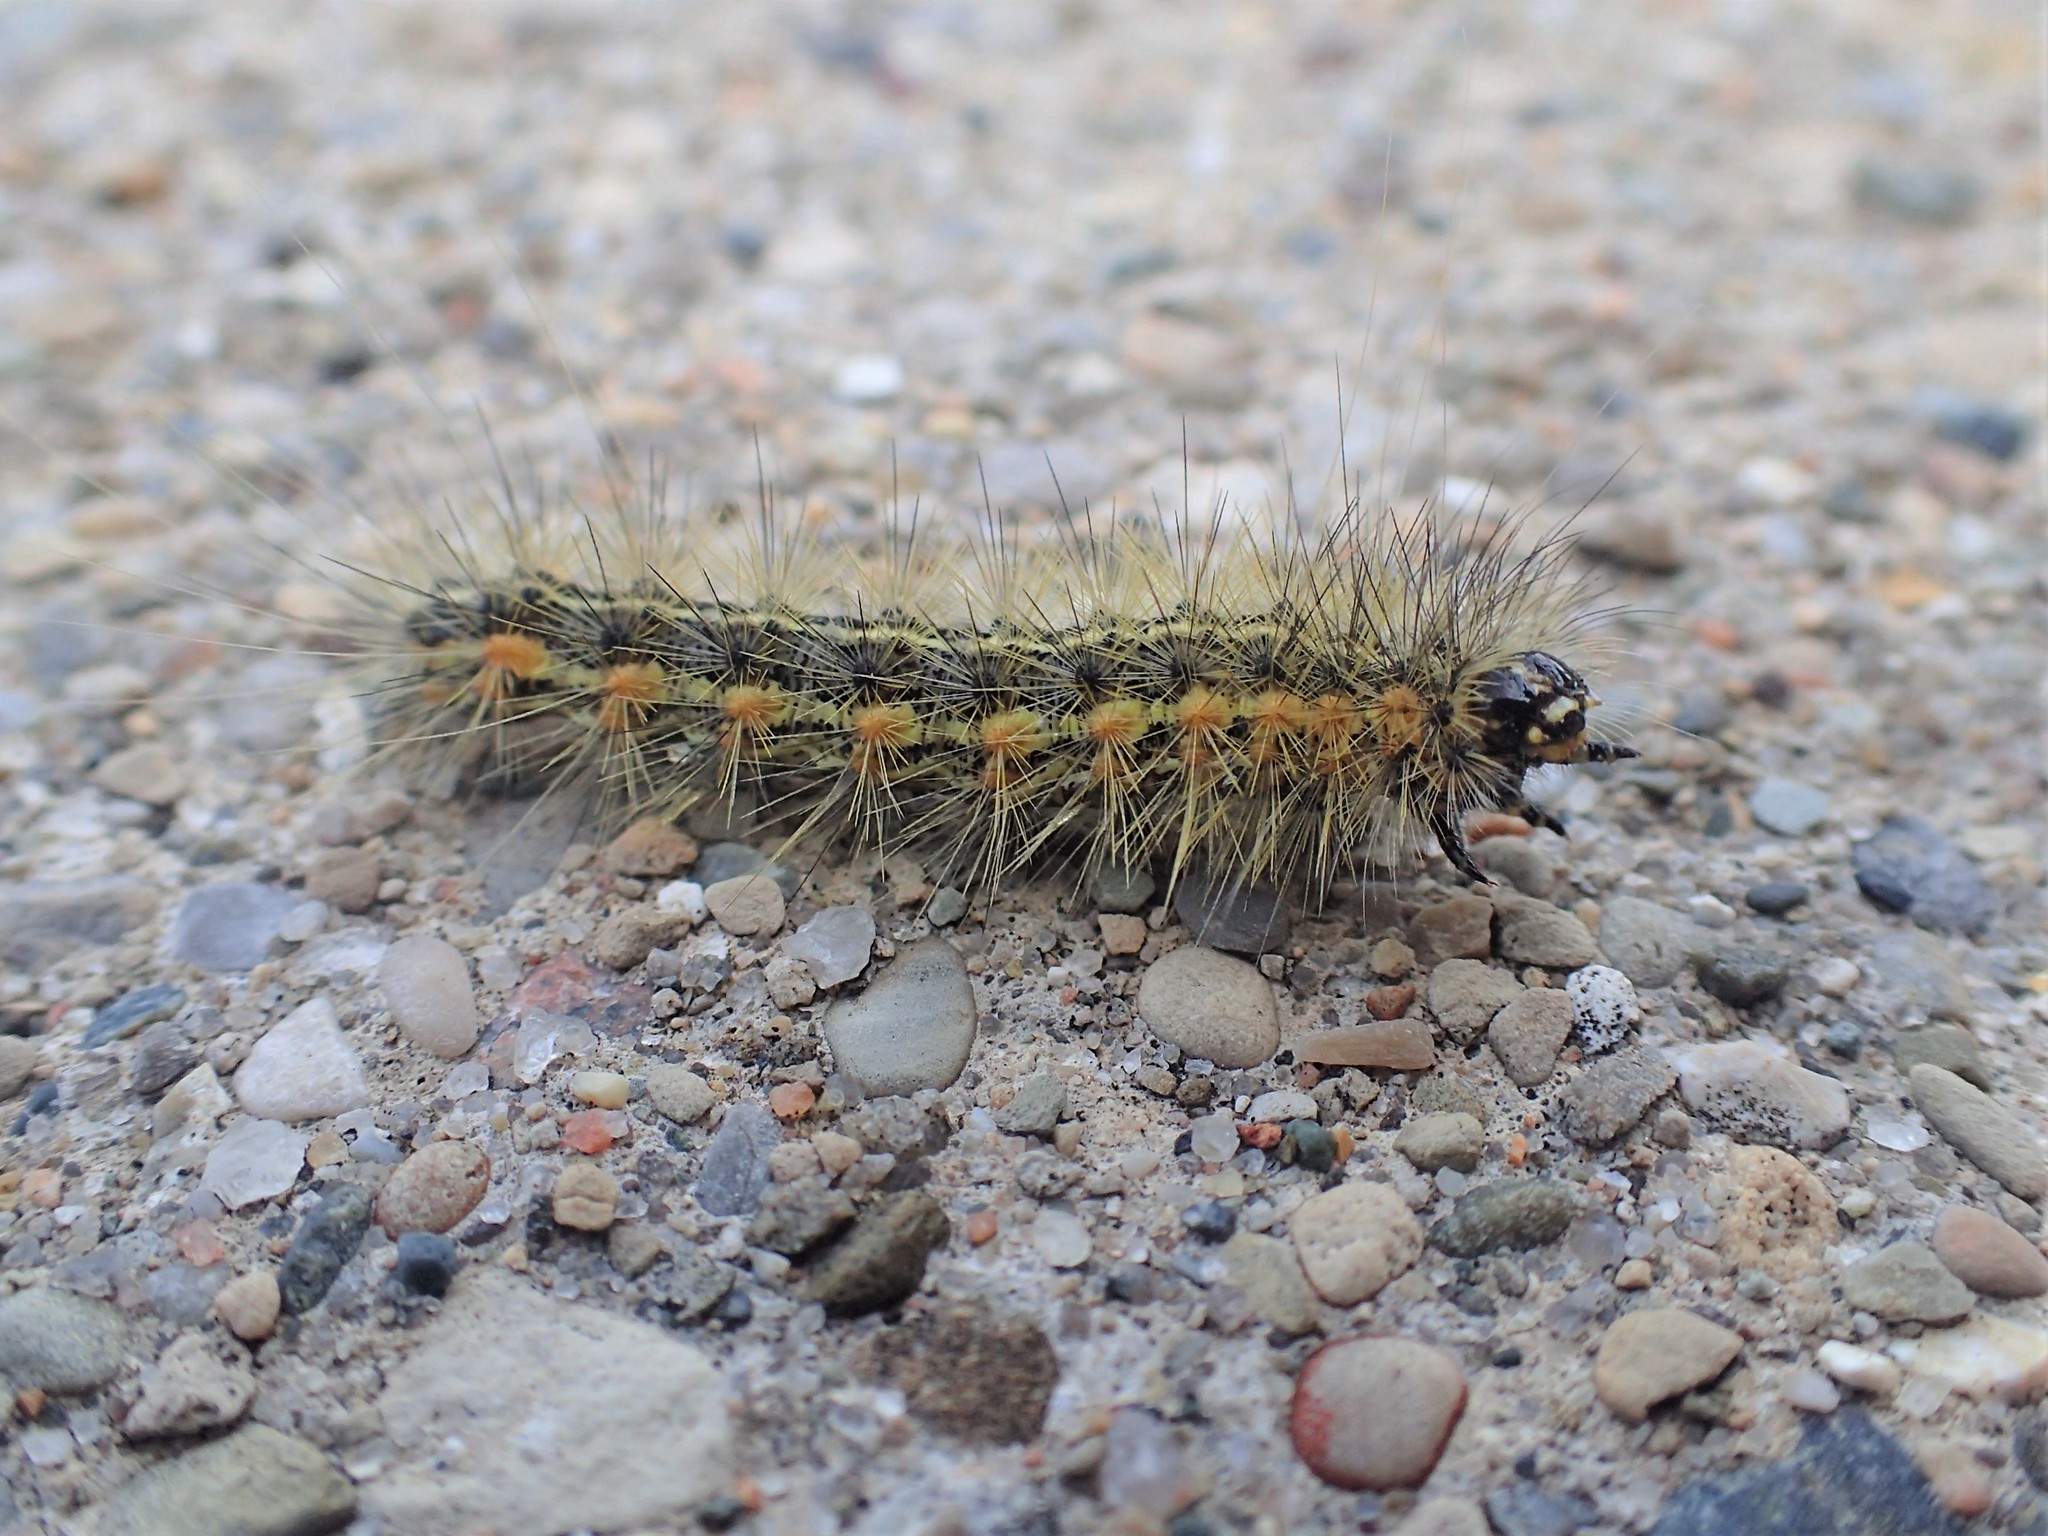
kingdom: Animalia
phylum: Arthropoda
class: Insecta
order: Lepidoptera
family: Erebidae
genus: Estigmene
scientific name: Estigmene acrea
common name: Salt marsh moth
